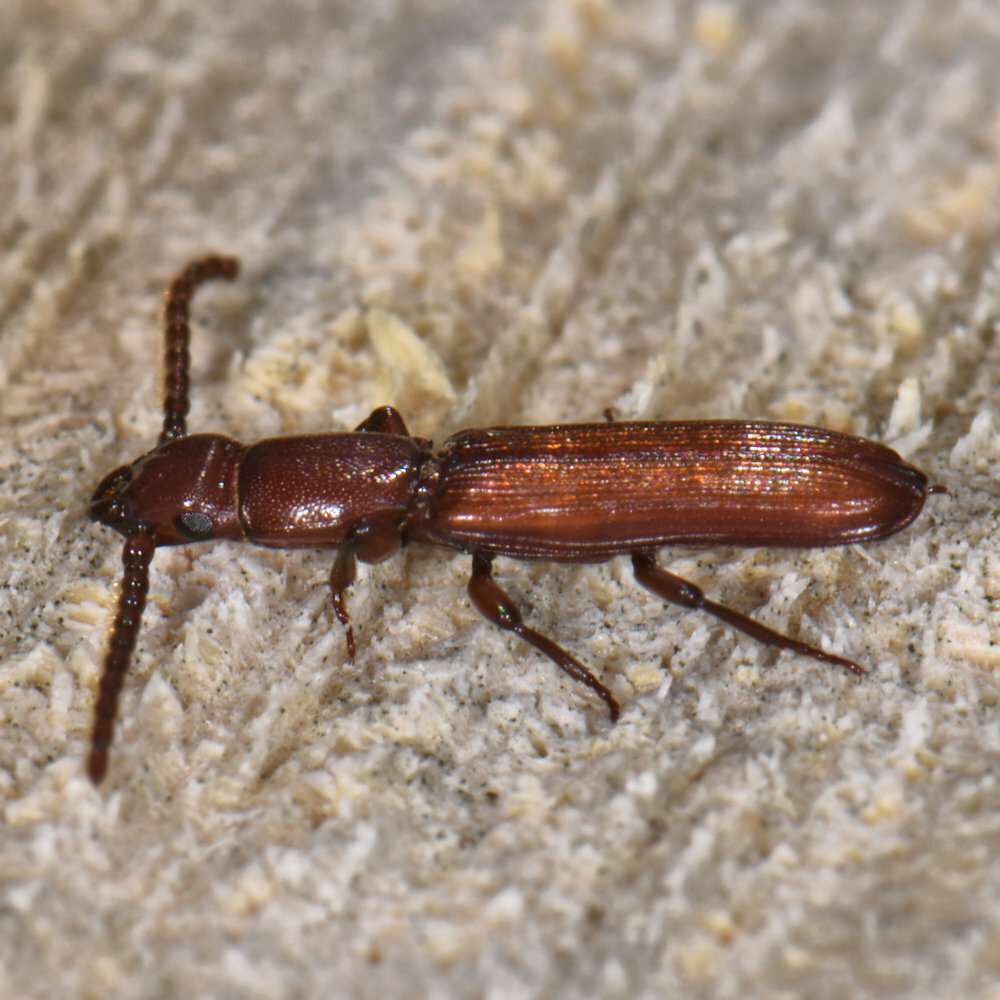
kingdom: Animalia
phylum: Arthropoda
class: Insecta
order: Coleoptera
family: Passandridae
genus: Catogenus
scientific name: Catogenus rufus
